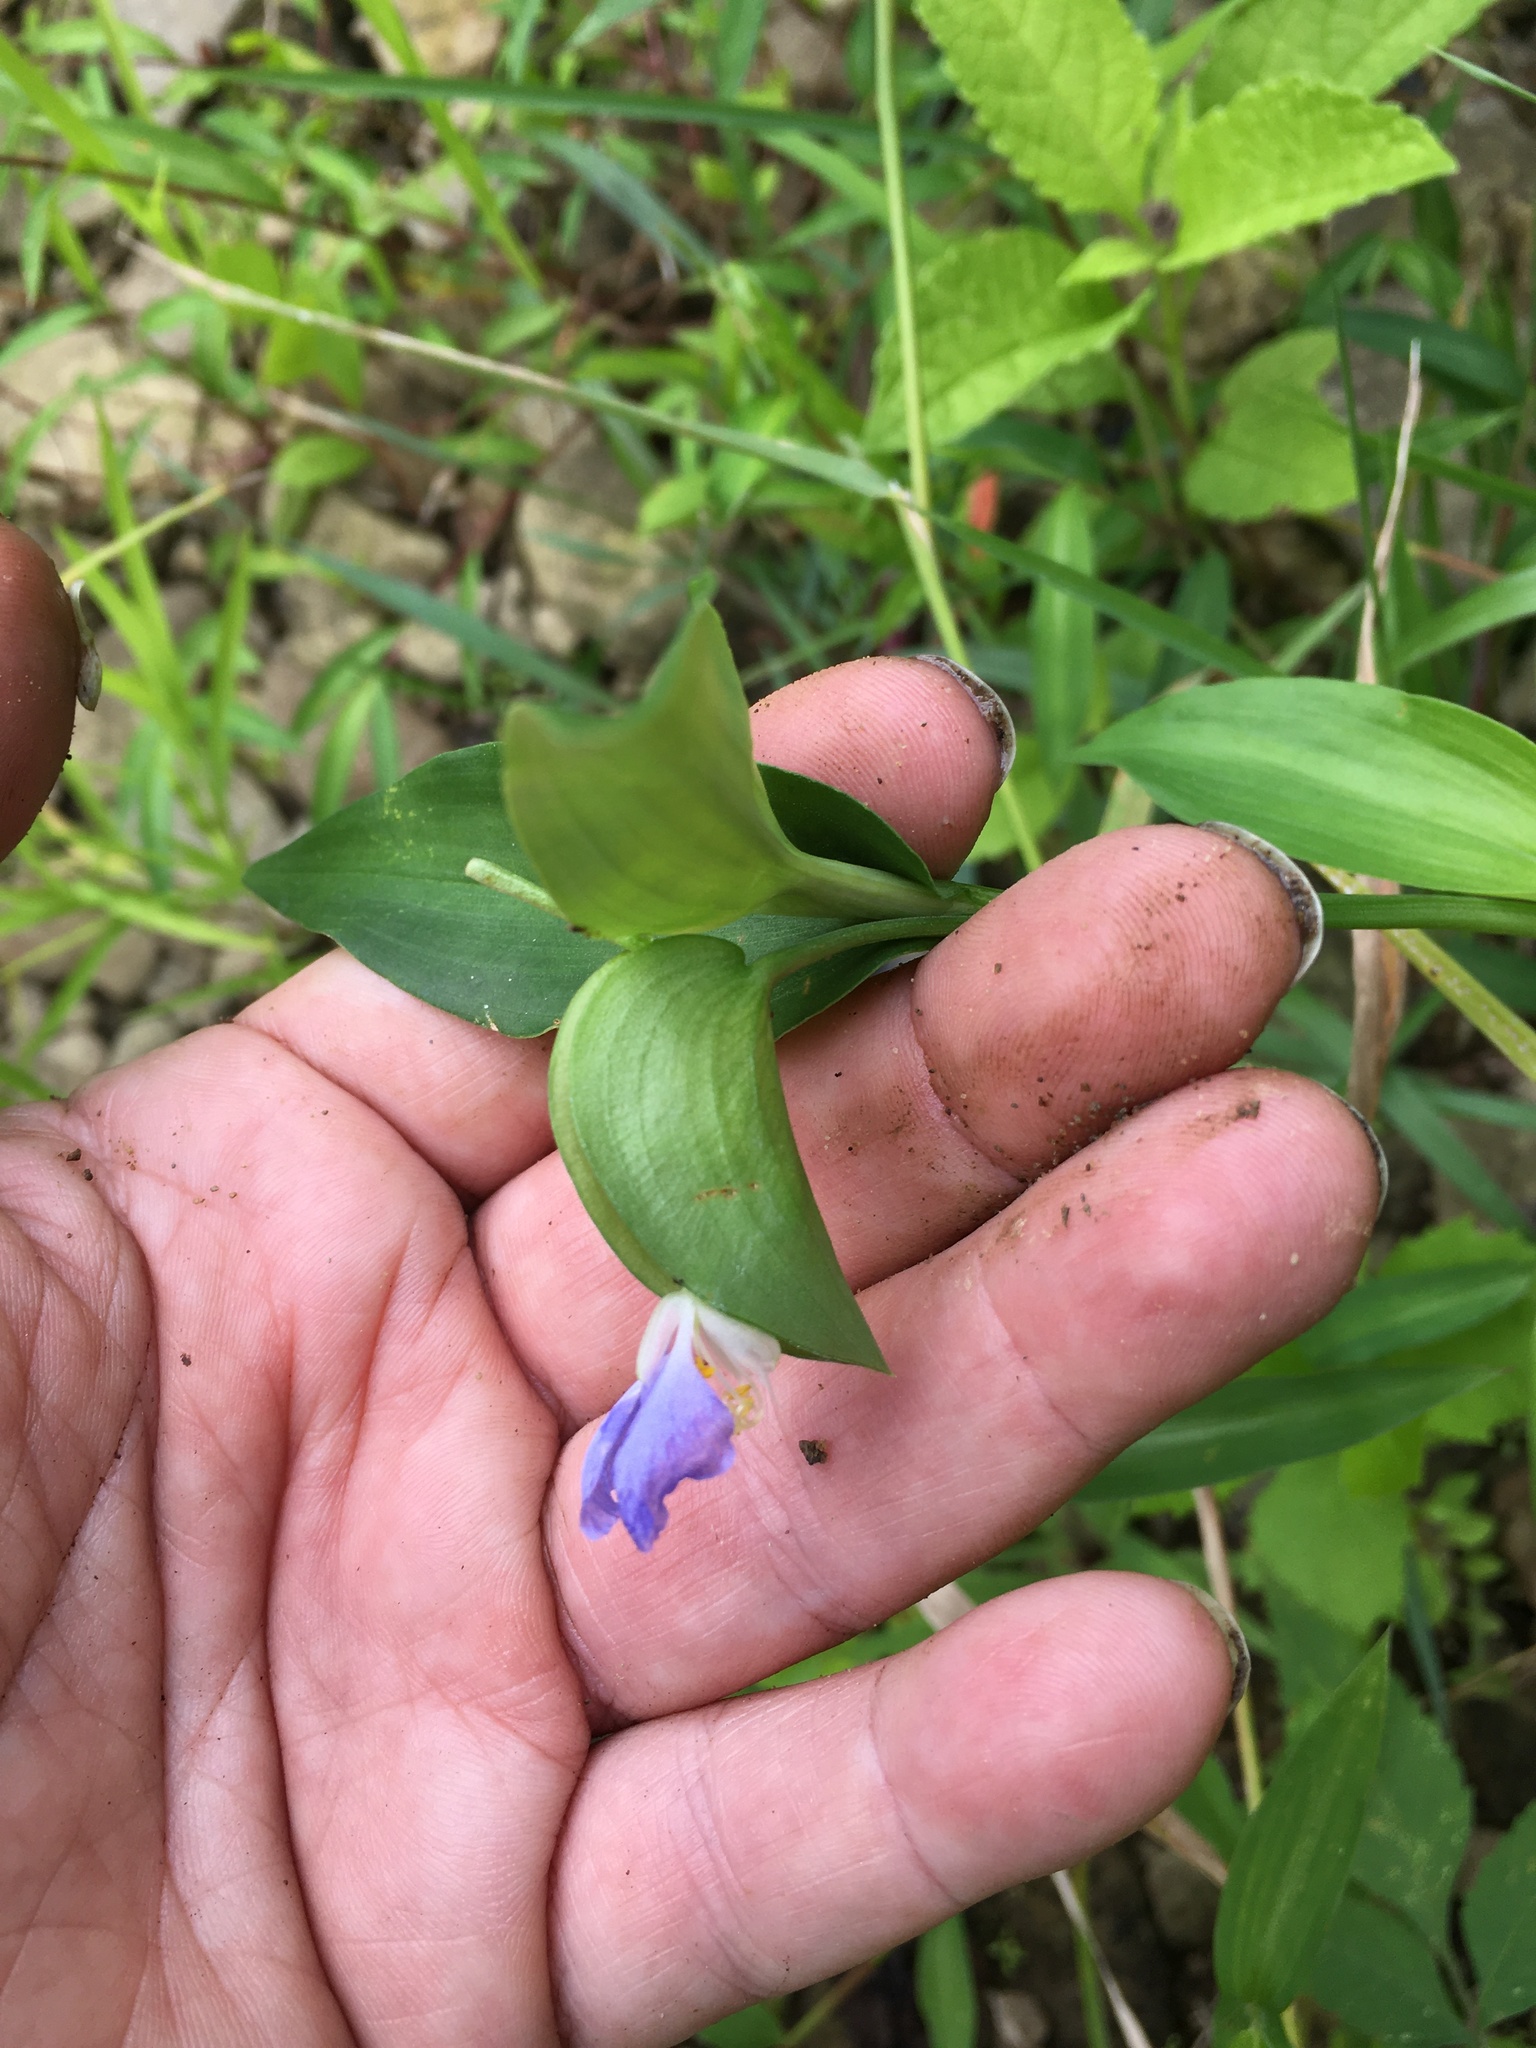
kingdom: Plantae
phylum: Tracheophyta
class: Liliopsida
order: Commelinales
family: Commelinaceae
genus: Commelina
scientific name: Commelina communis
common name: Asiatic dayflower
